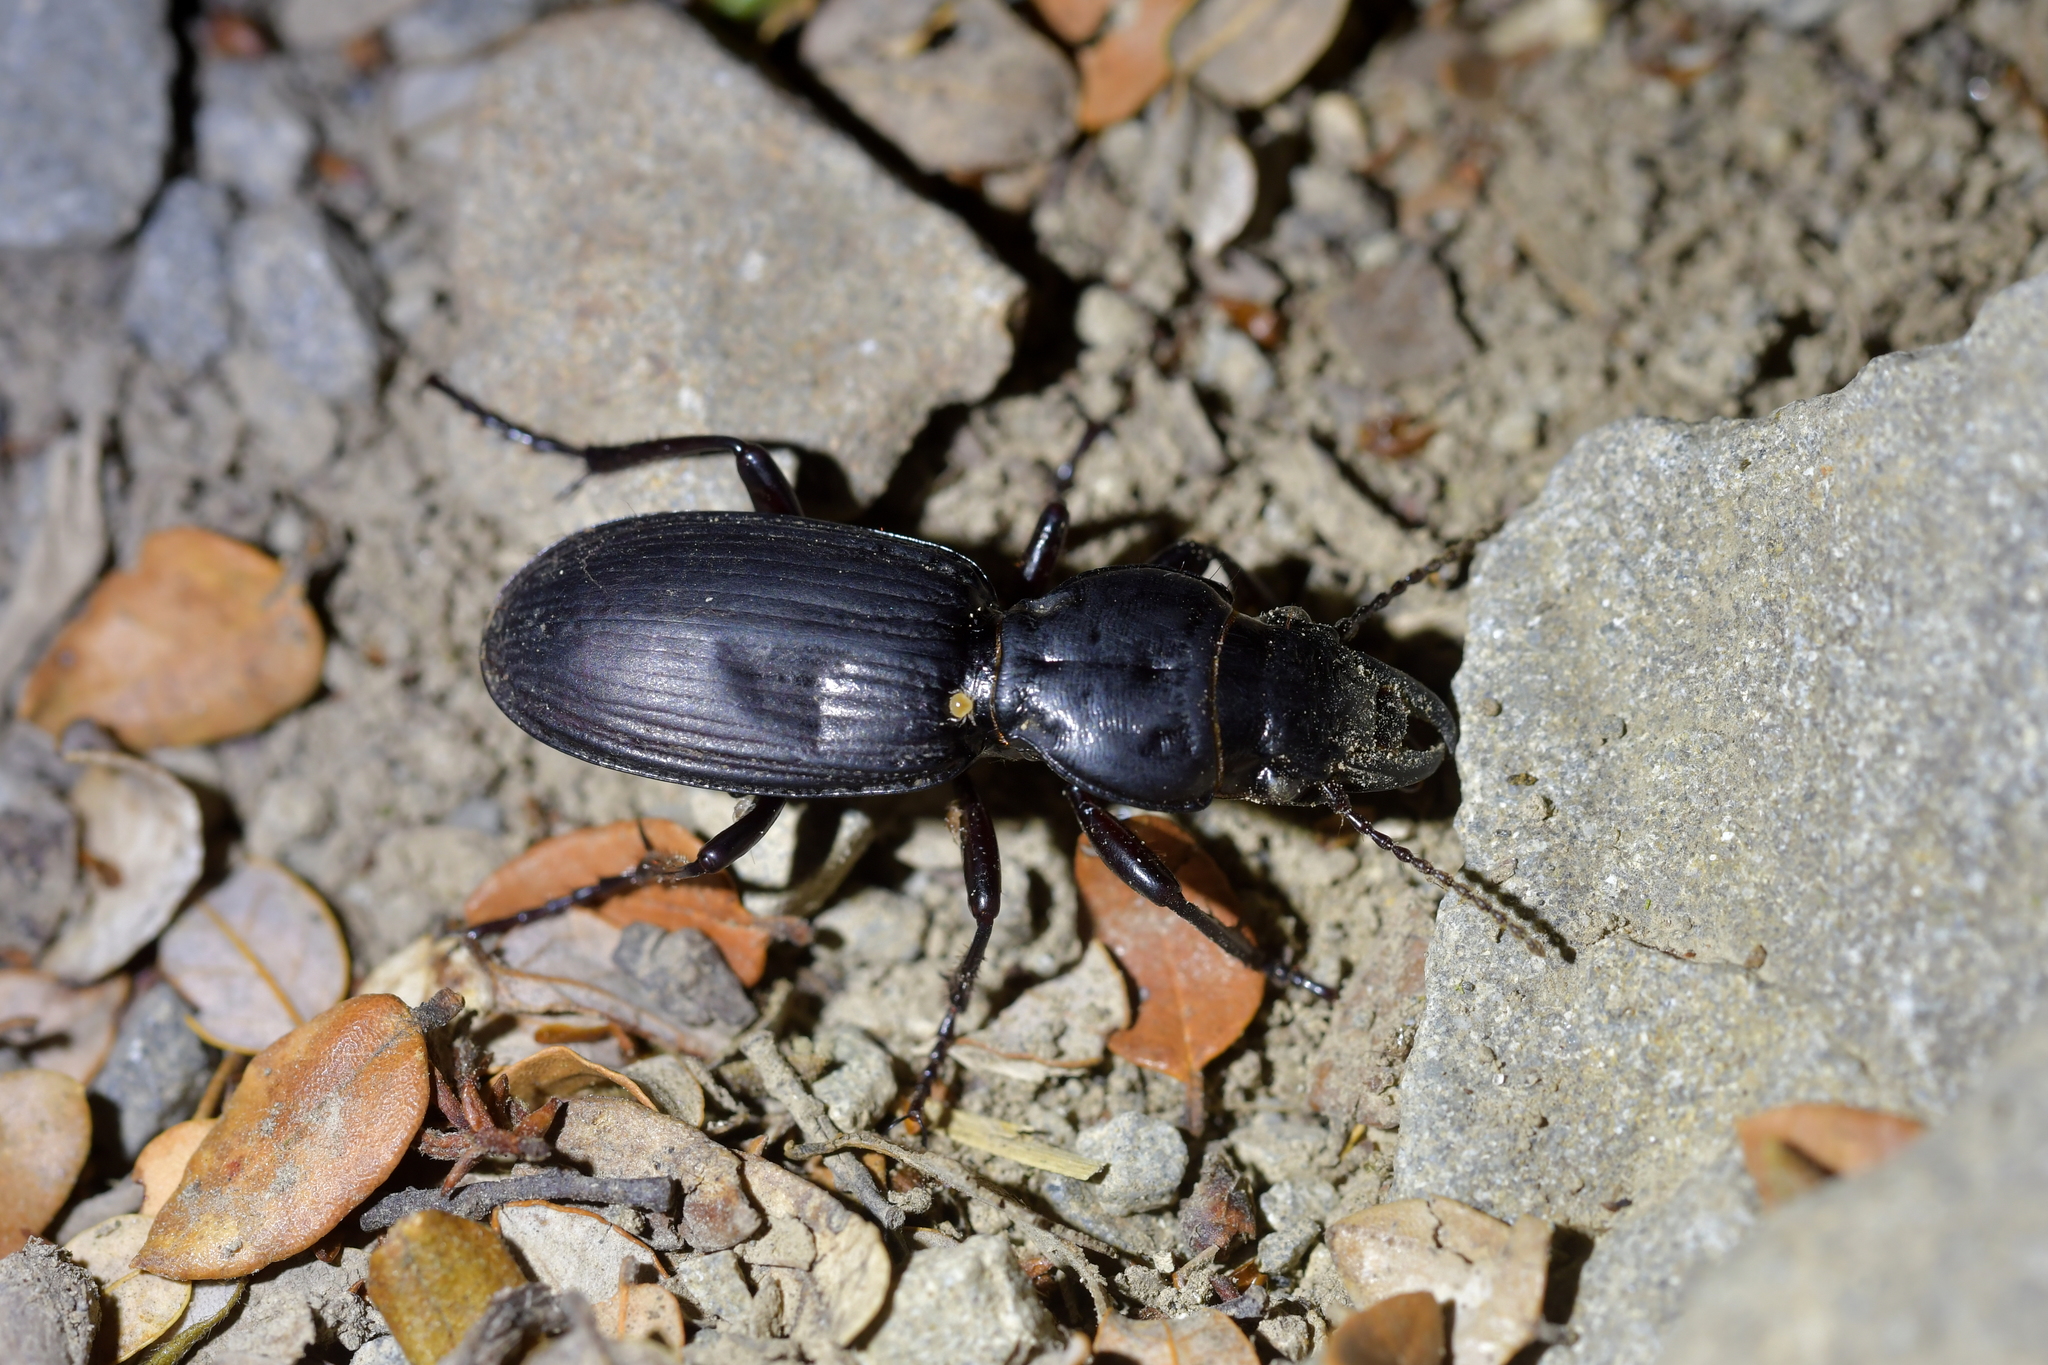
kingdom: Animalia
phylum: Arthropoda
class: Insecta
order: Coleoptera
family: Carabidae
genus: Mecodema
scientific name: Mecodema validum
